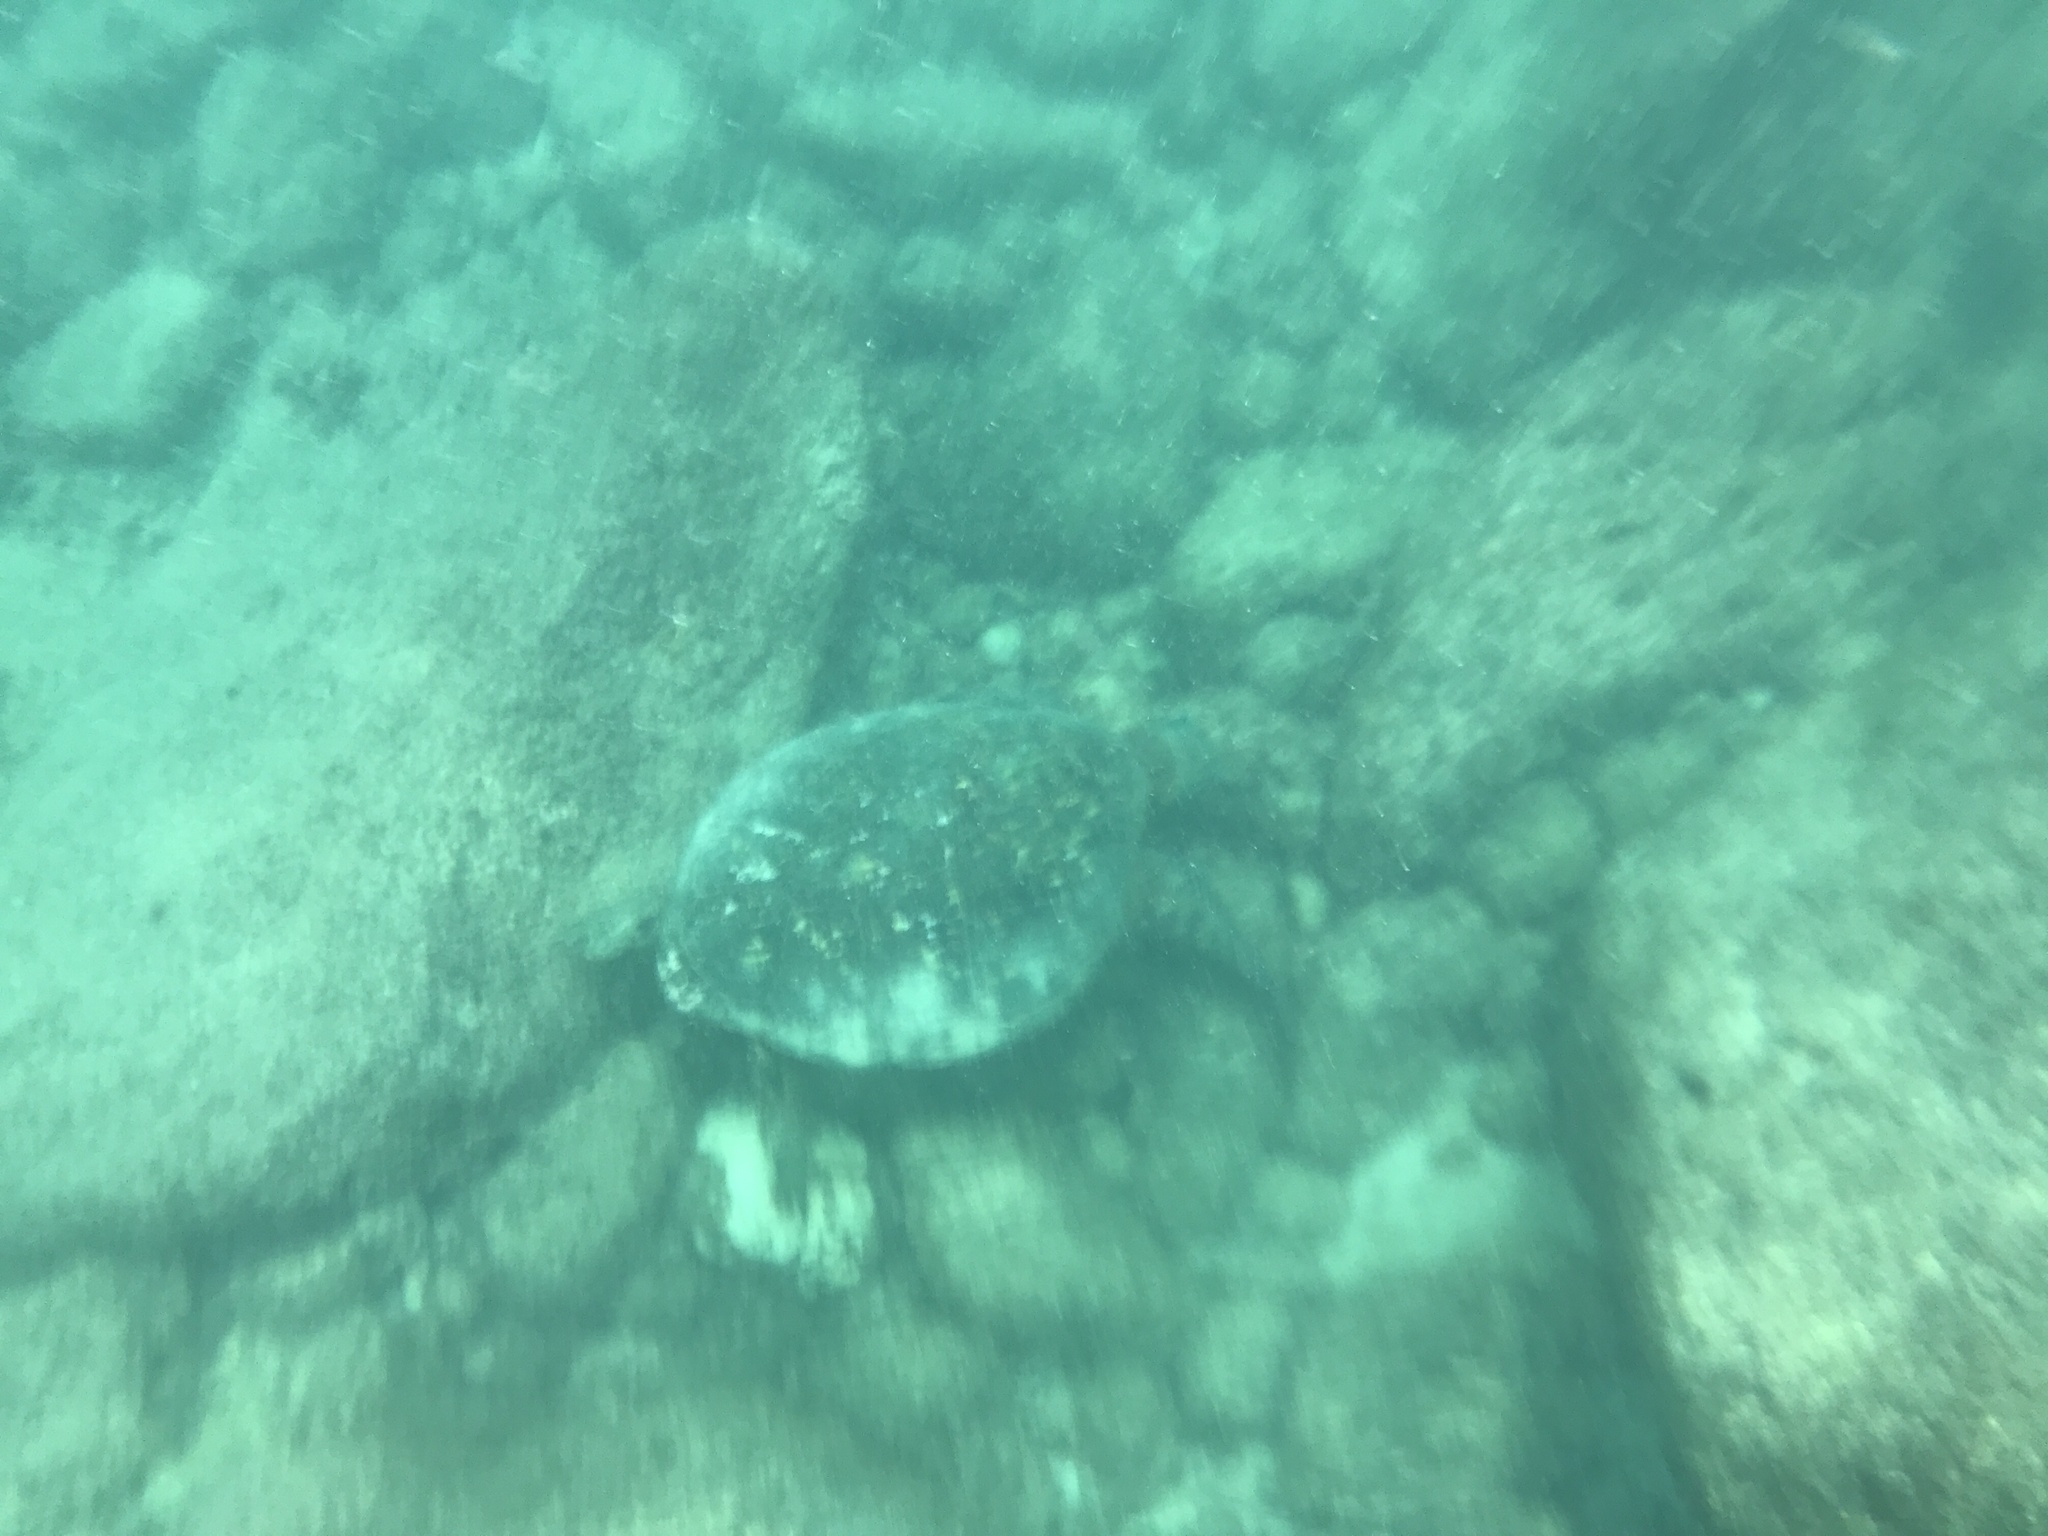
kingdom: Animalia
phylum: Chordata
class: Testudines
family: Cheloniidae
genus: Chelonia
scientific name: Chelonia mydas
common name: Green turtle
